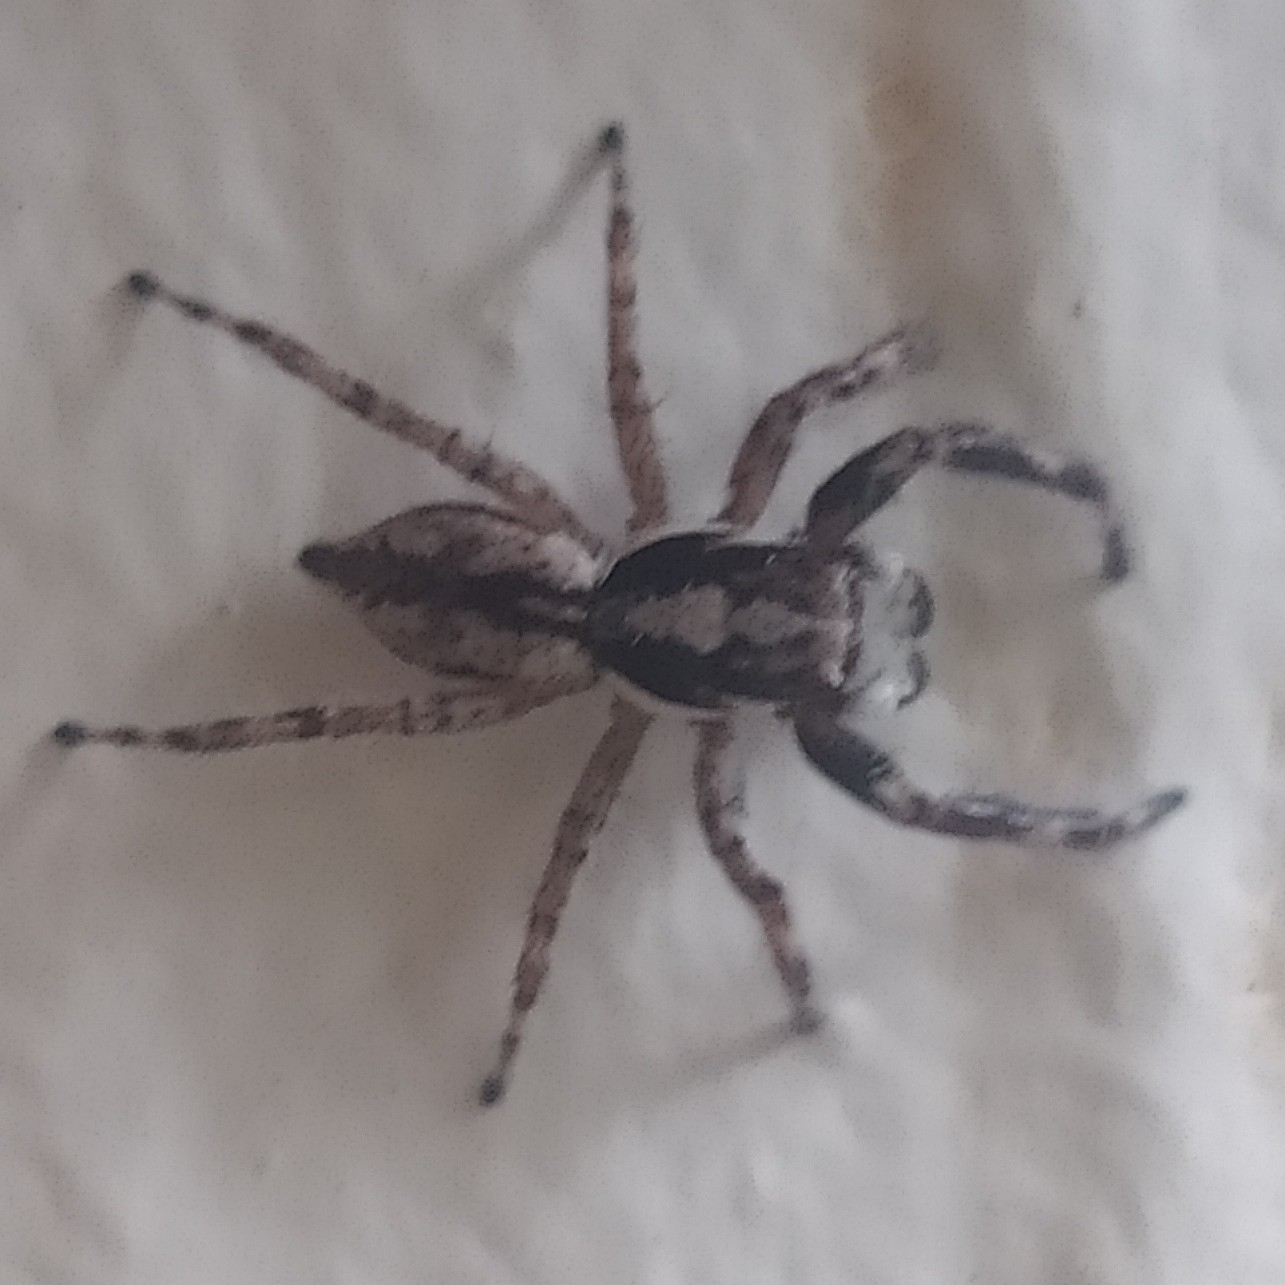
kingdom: Animalia
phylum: Arthropoda
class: Arachnida
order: Araneae
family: Salticidae
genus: Menemerus
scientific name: Menemerus bivittatus
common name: Gray wall jumper
